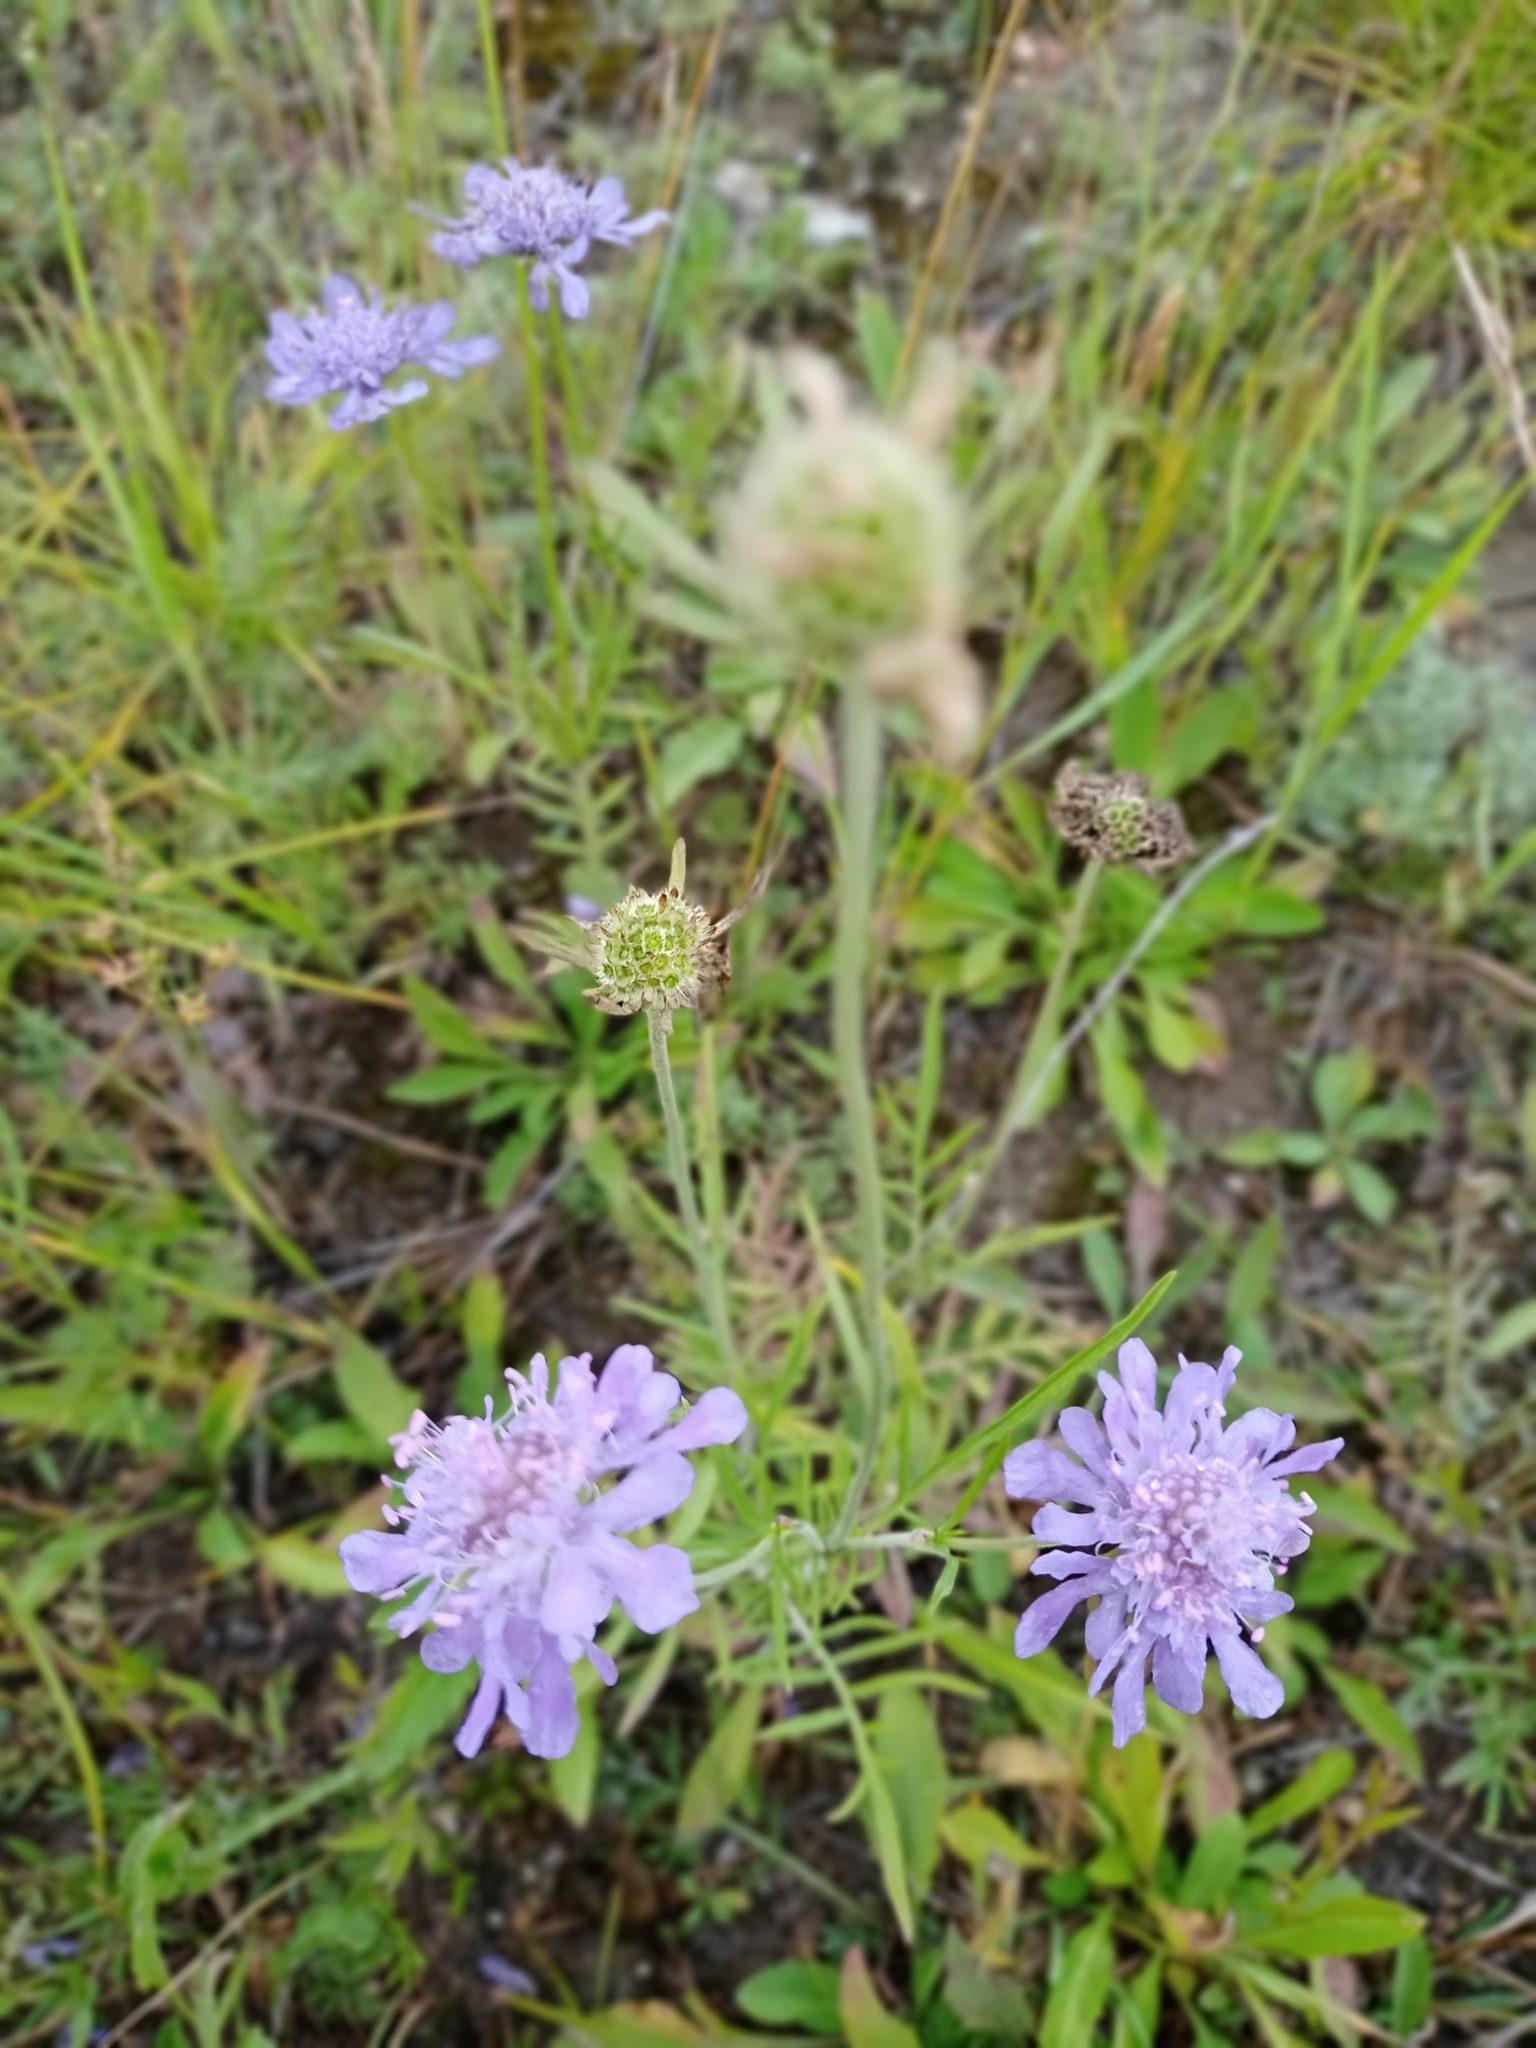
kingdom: Plantae
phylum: Tracheophyta
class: Magnoliopsida
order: Dipsacales
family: Caprifoliaceae
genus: Scabiosa
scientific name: Scabiosa comosa
